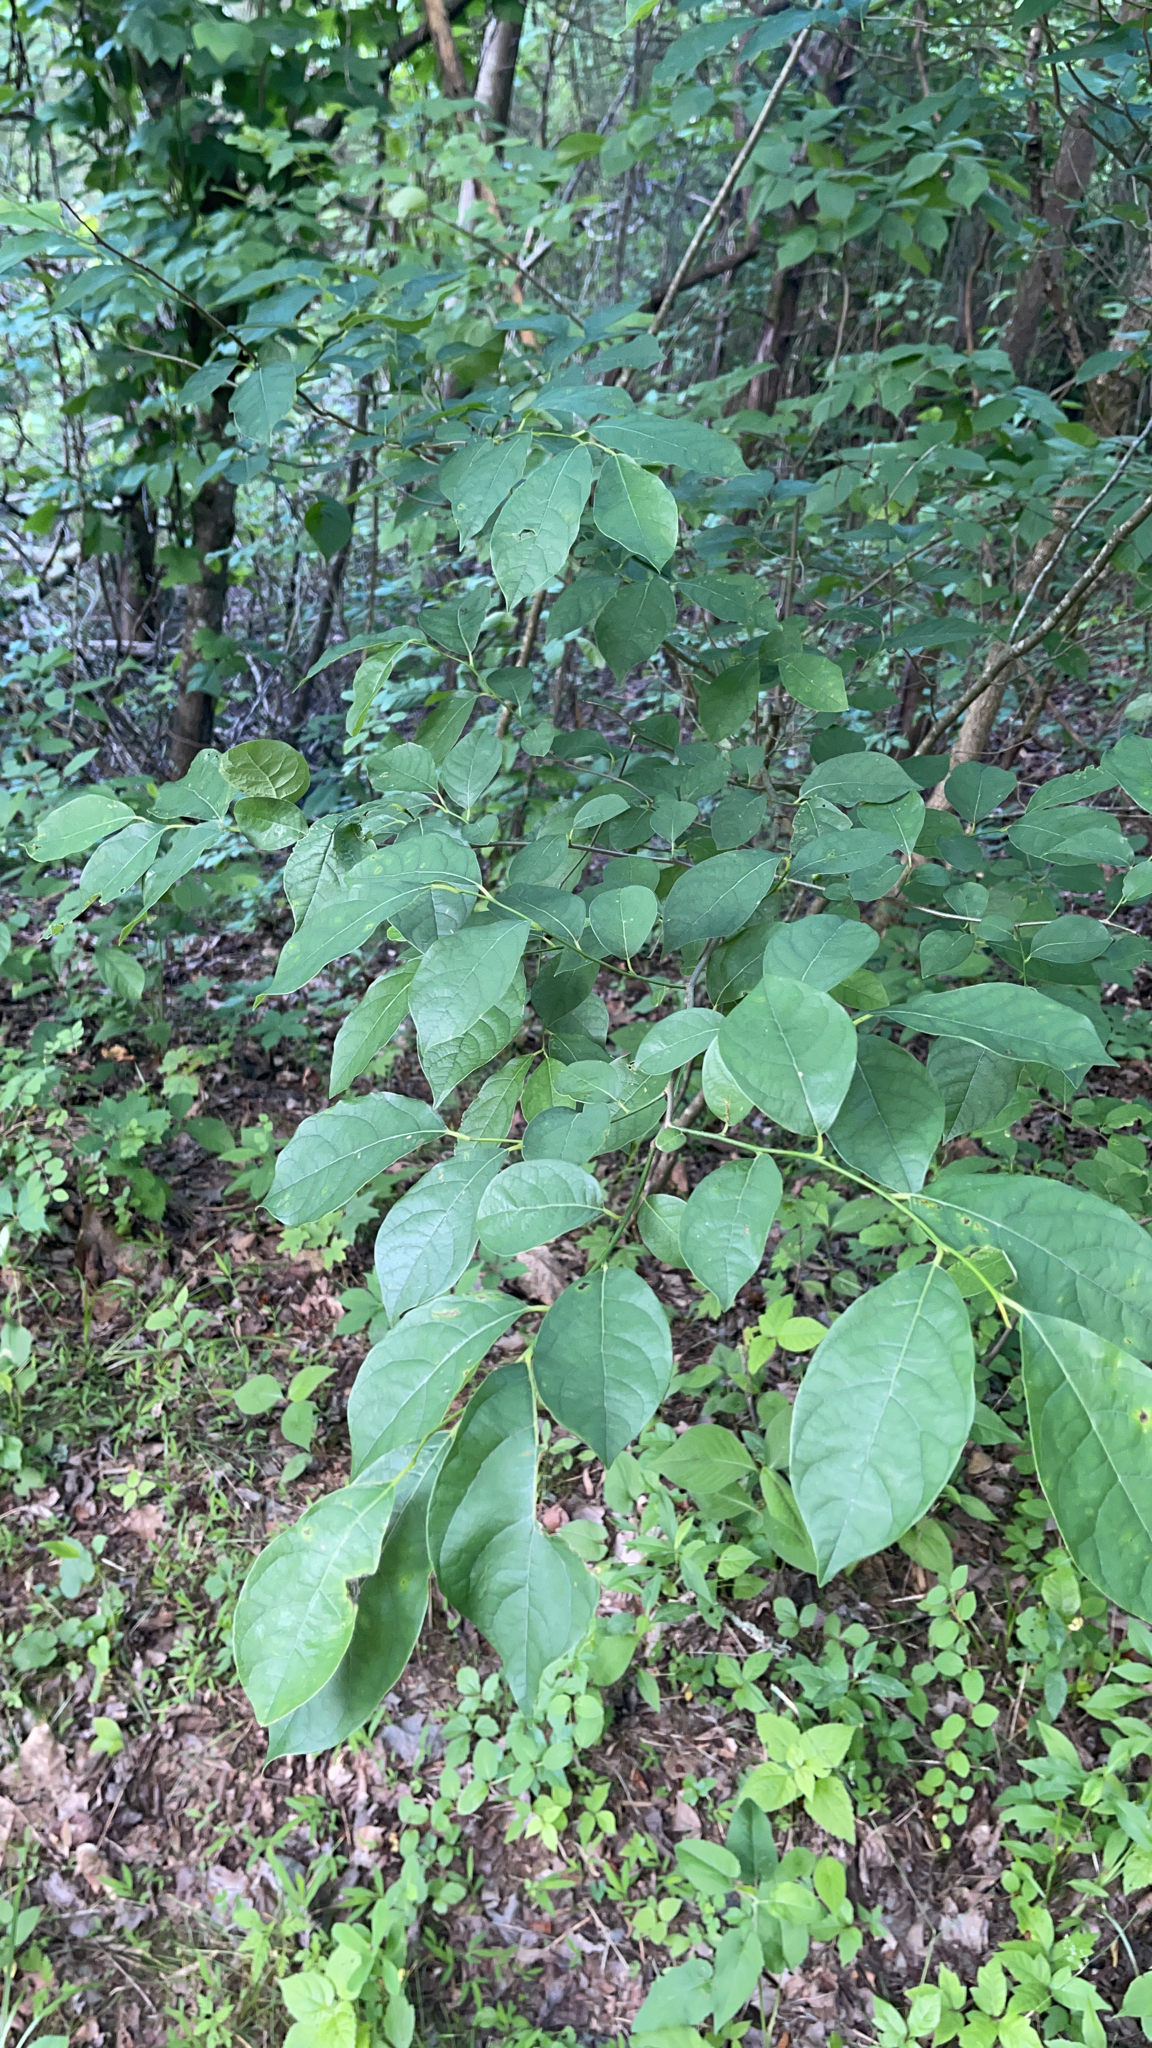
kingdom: Plantae
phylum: Tracheophyta
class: Magnoliopsida
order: Laurales
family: Lauraceae
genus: Lindera
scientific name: Lindera benzoin
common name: Spicebush
